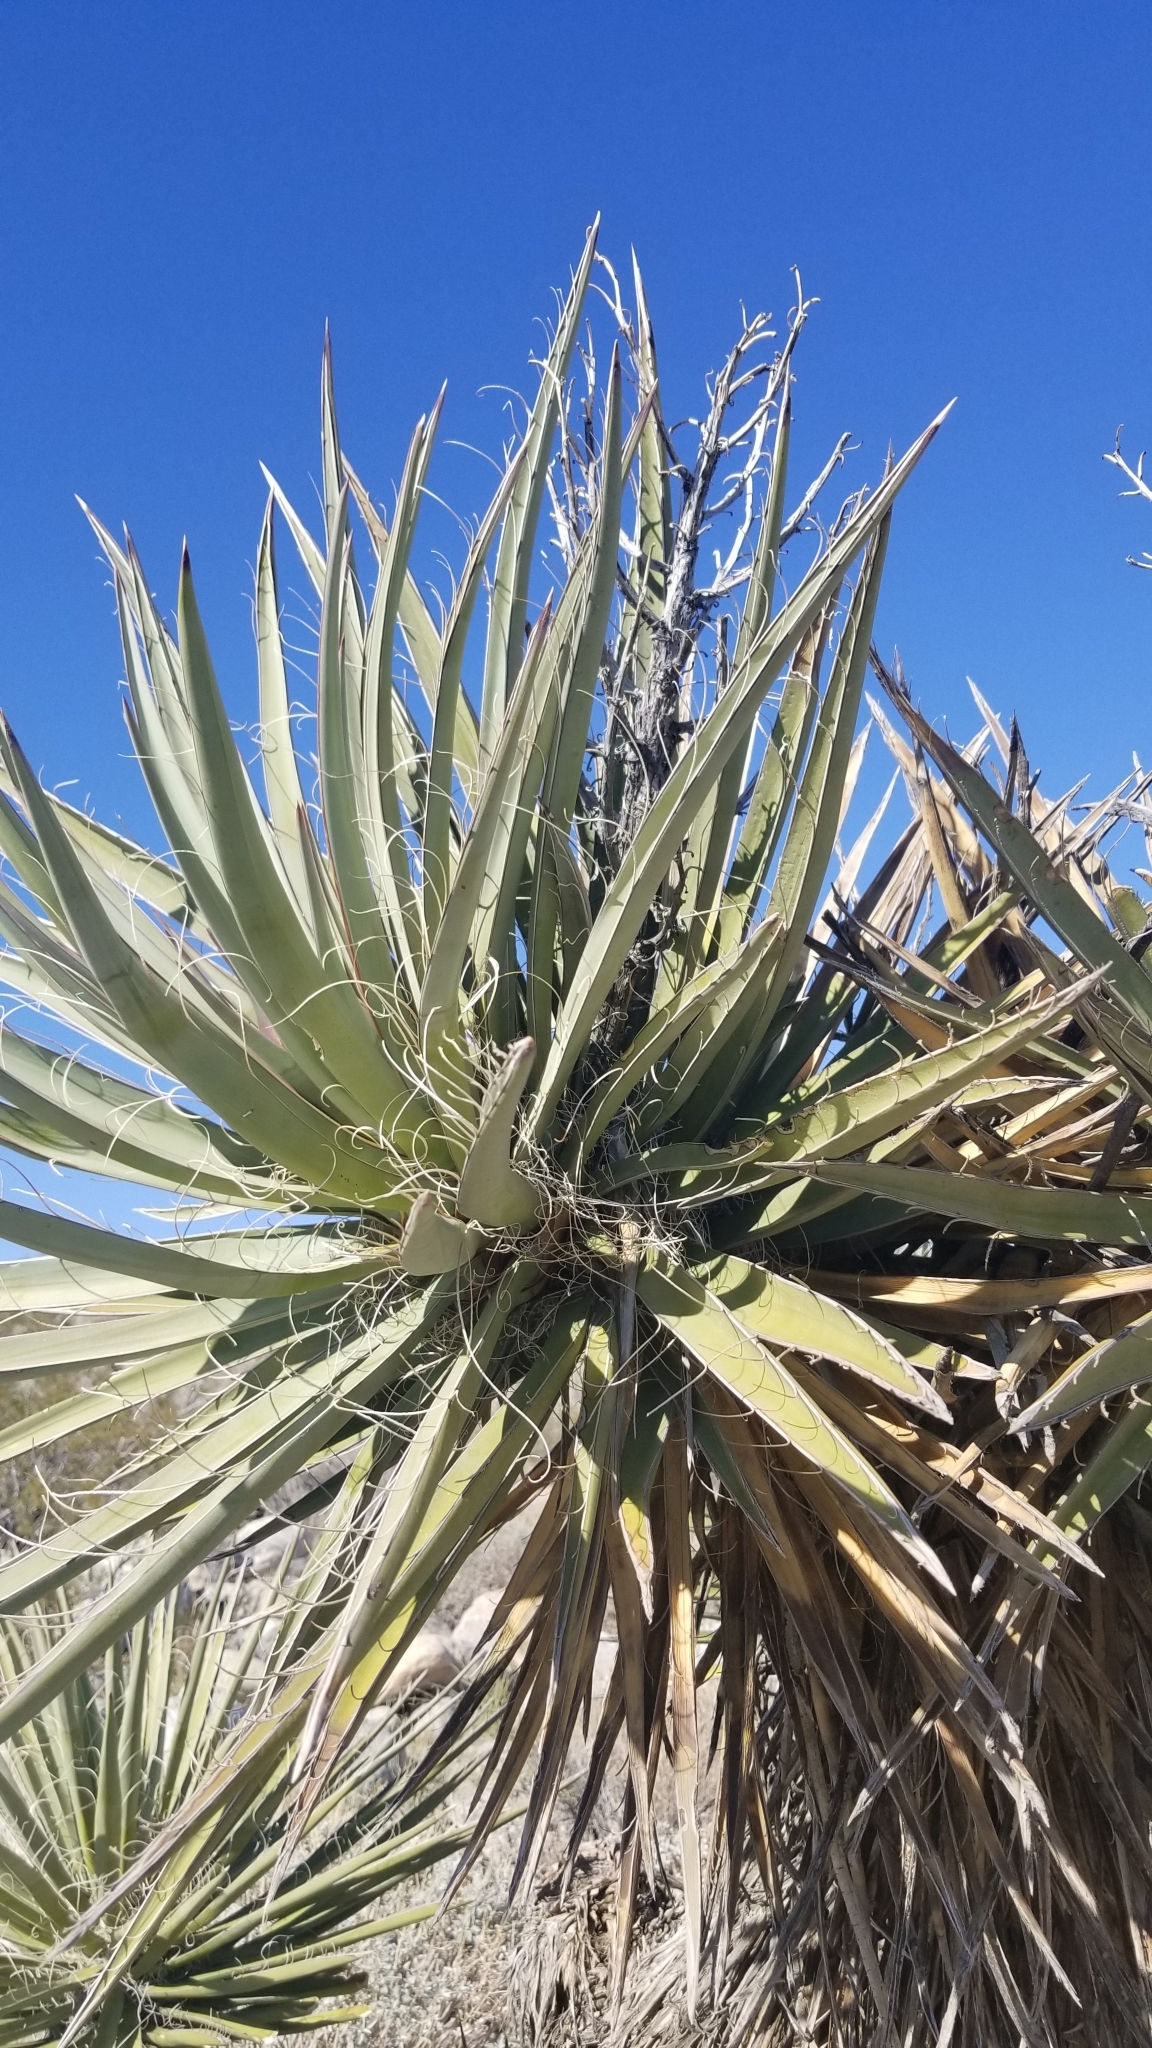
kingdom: Plantae
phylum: Tracheophyta
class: Liliopsida
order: Asparagales
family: Asparagaceae
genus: Yucca
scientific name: Yucca schidigera
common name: Mojave yucca
